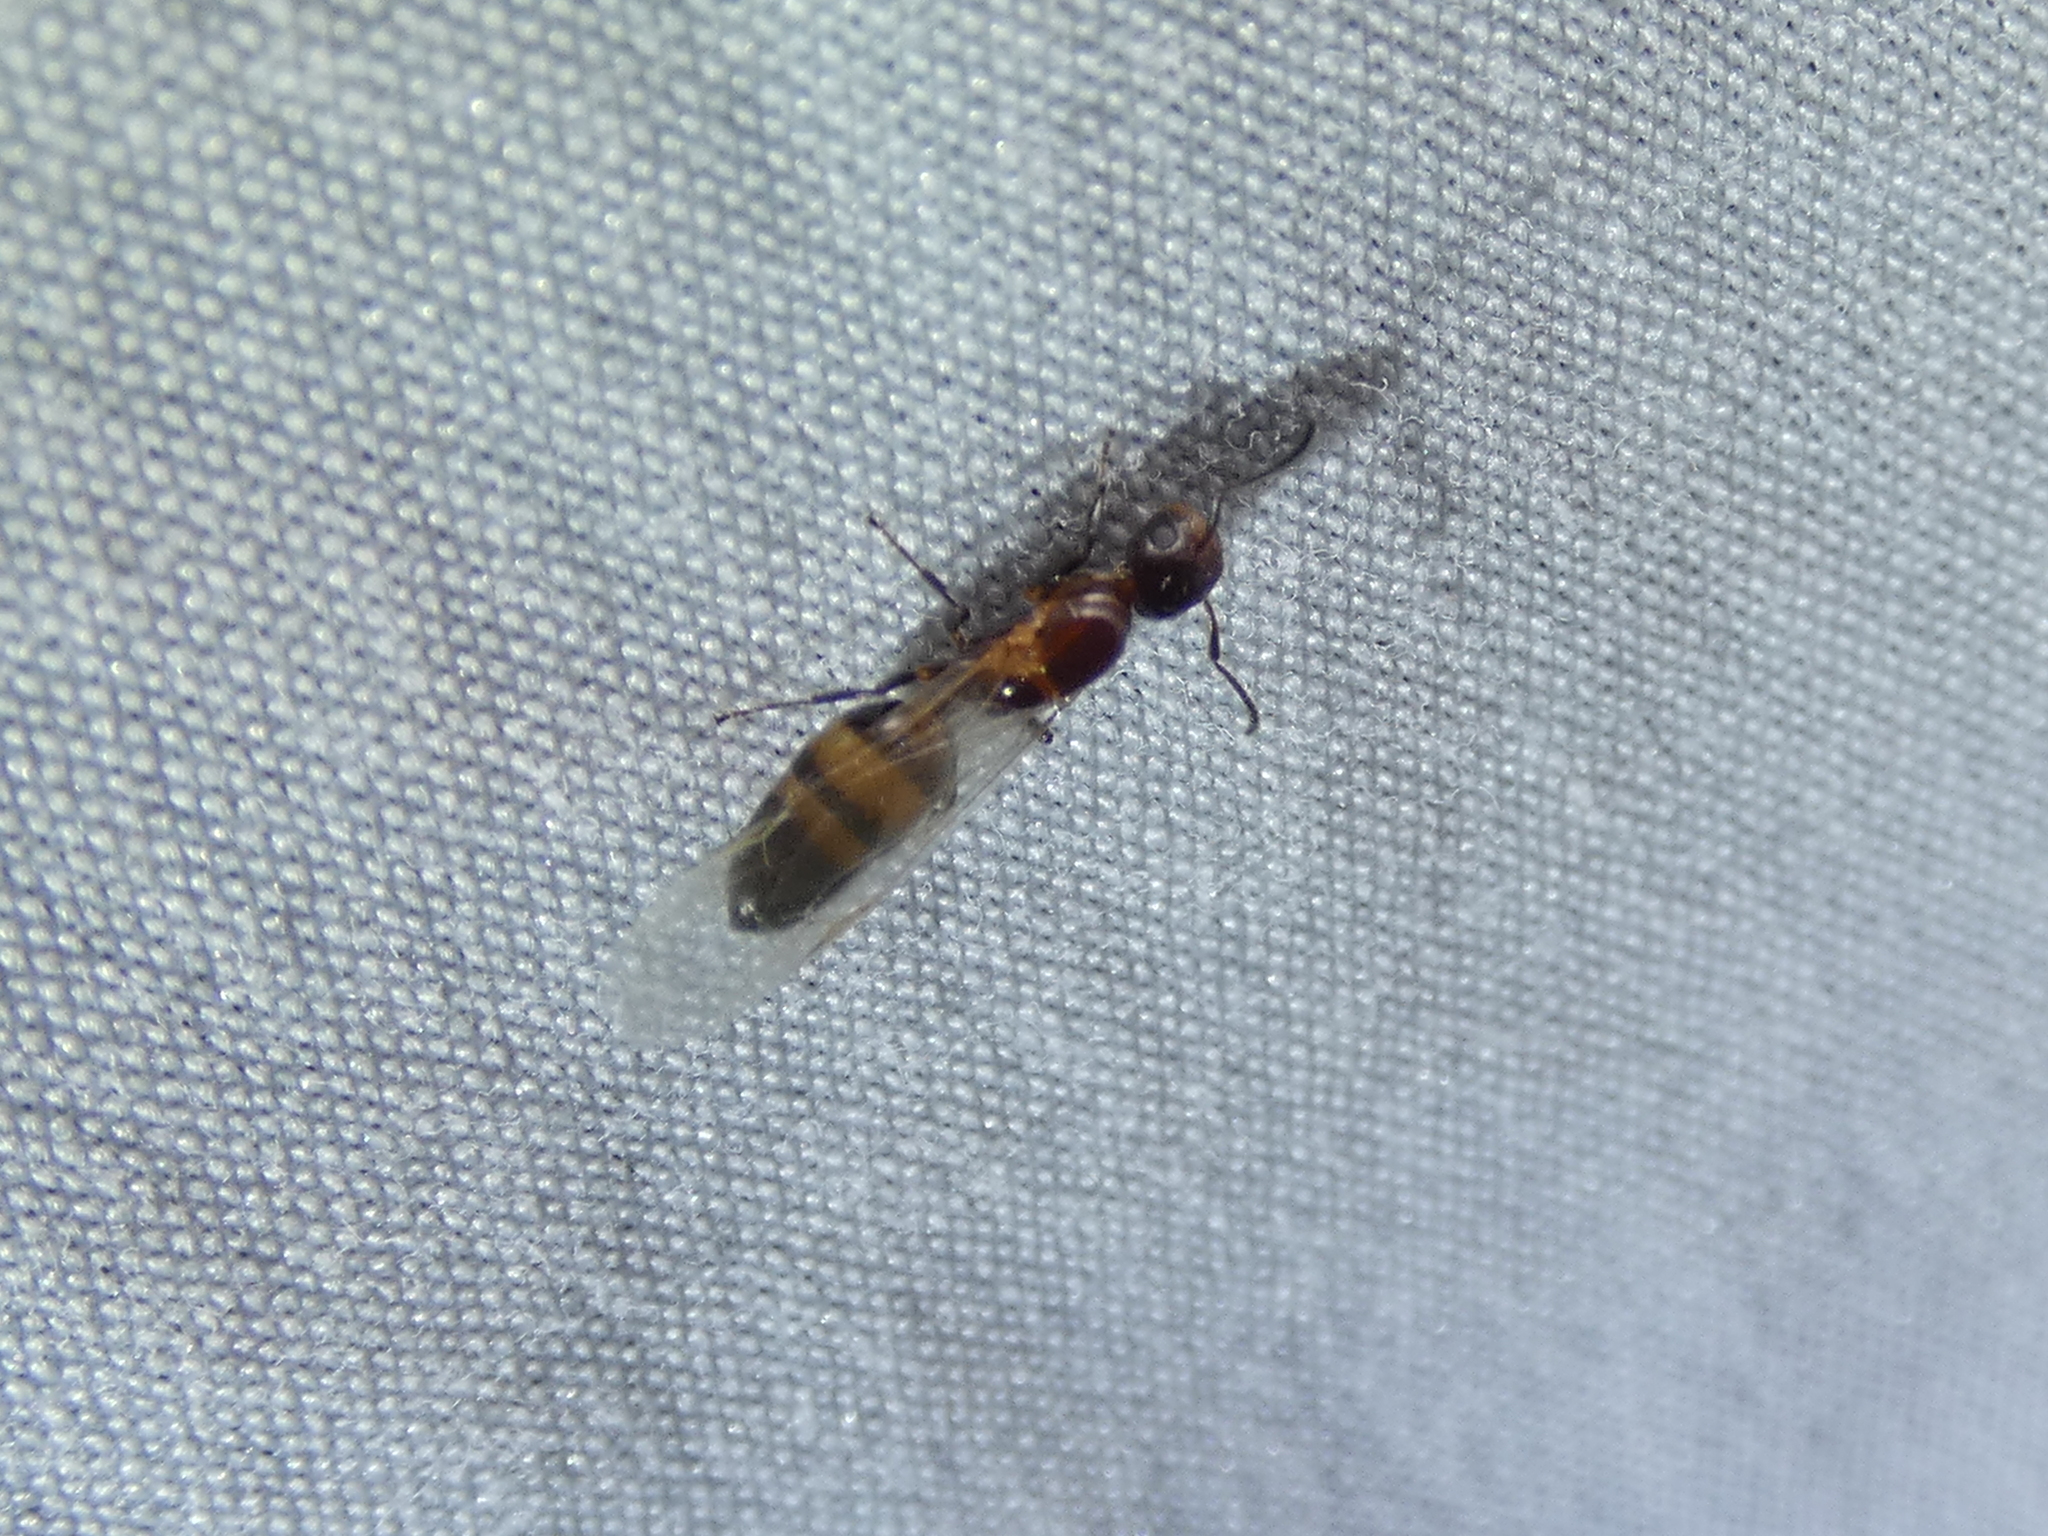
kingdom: Animalia
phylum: Arthropoda
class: Insecta
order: Hymenoptera
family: Formicidae
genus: Colobopsis
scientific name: Colobopsis impressa
